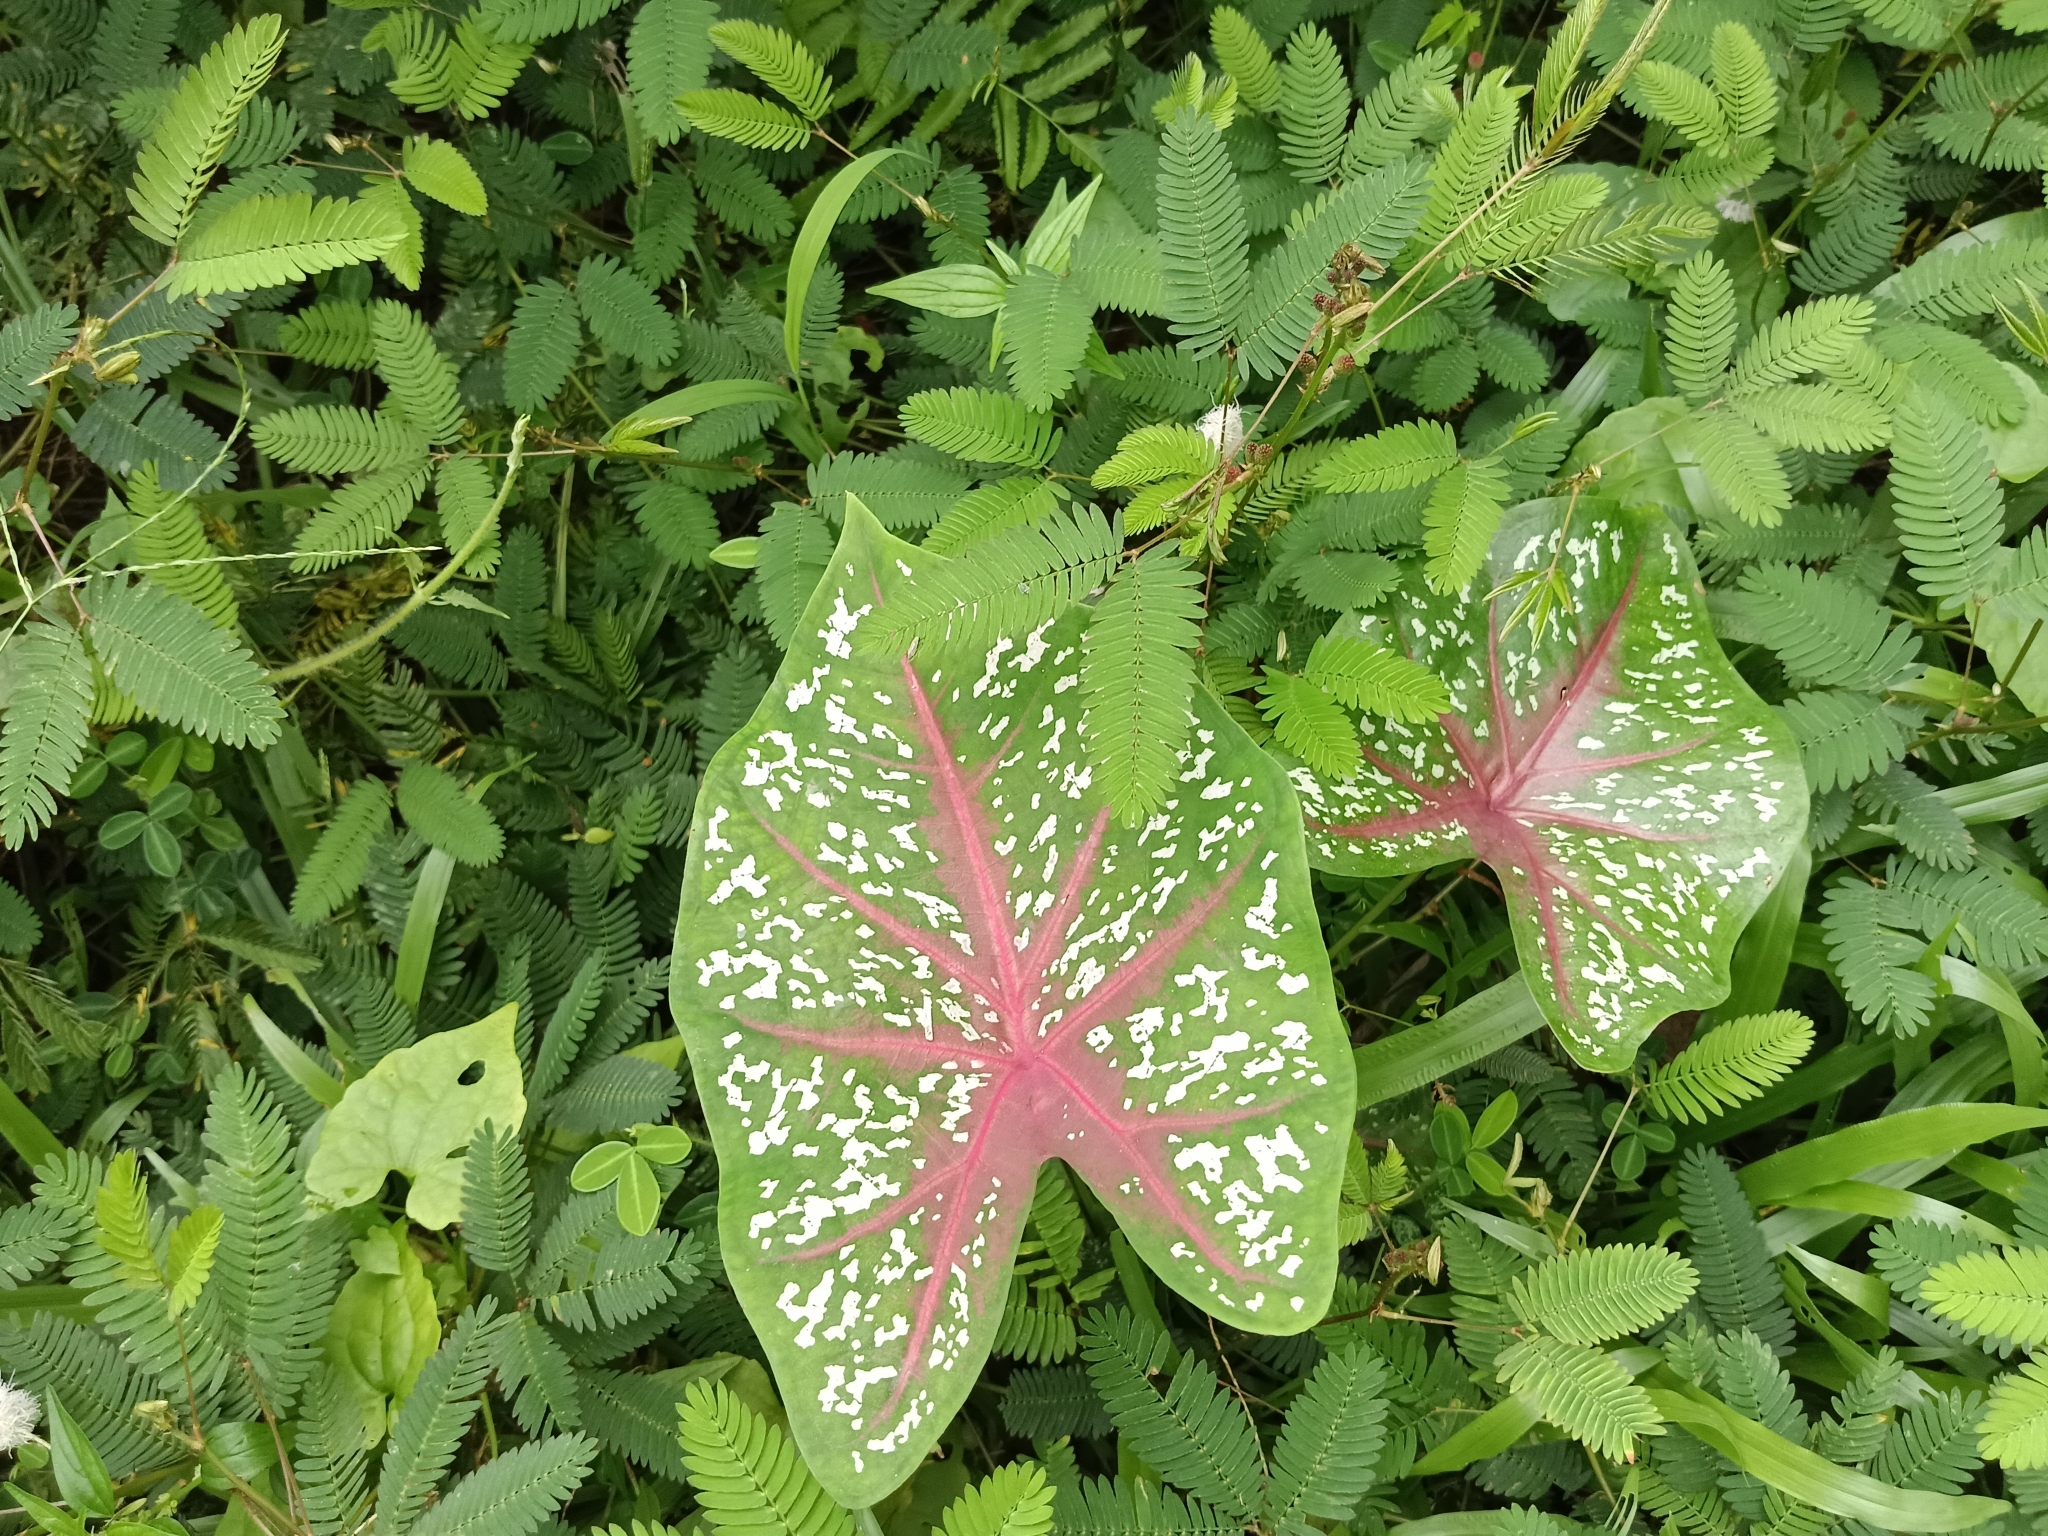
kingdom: Plantae
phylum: Tracheophyta
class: Liliopsida
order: Alismatales
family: Araceae
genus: Caladium
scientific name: Caladium bicolor
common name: Artist's pallet
